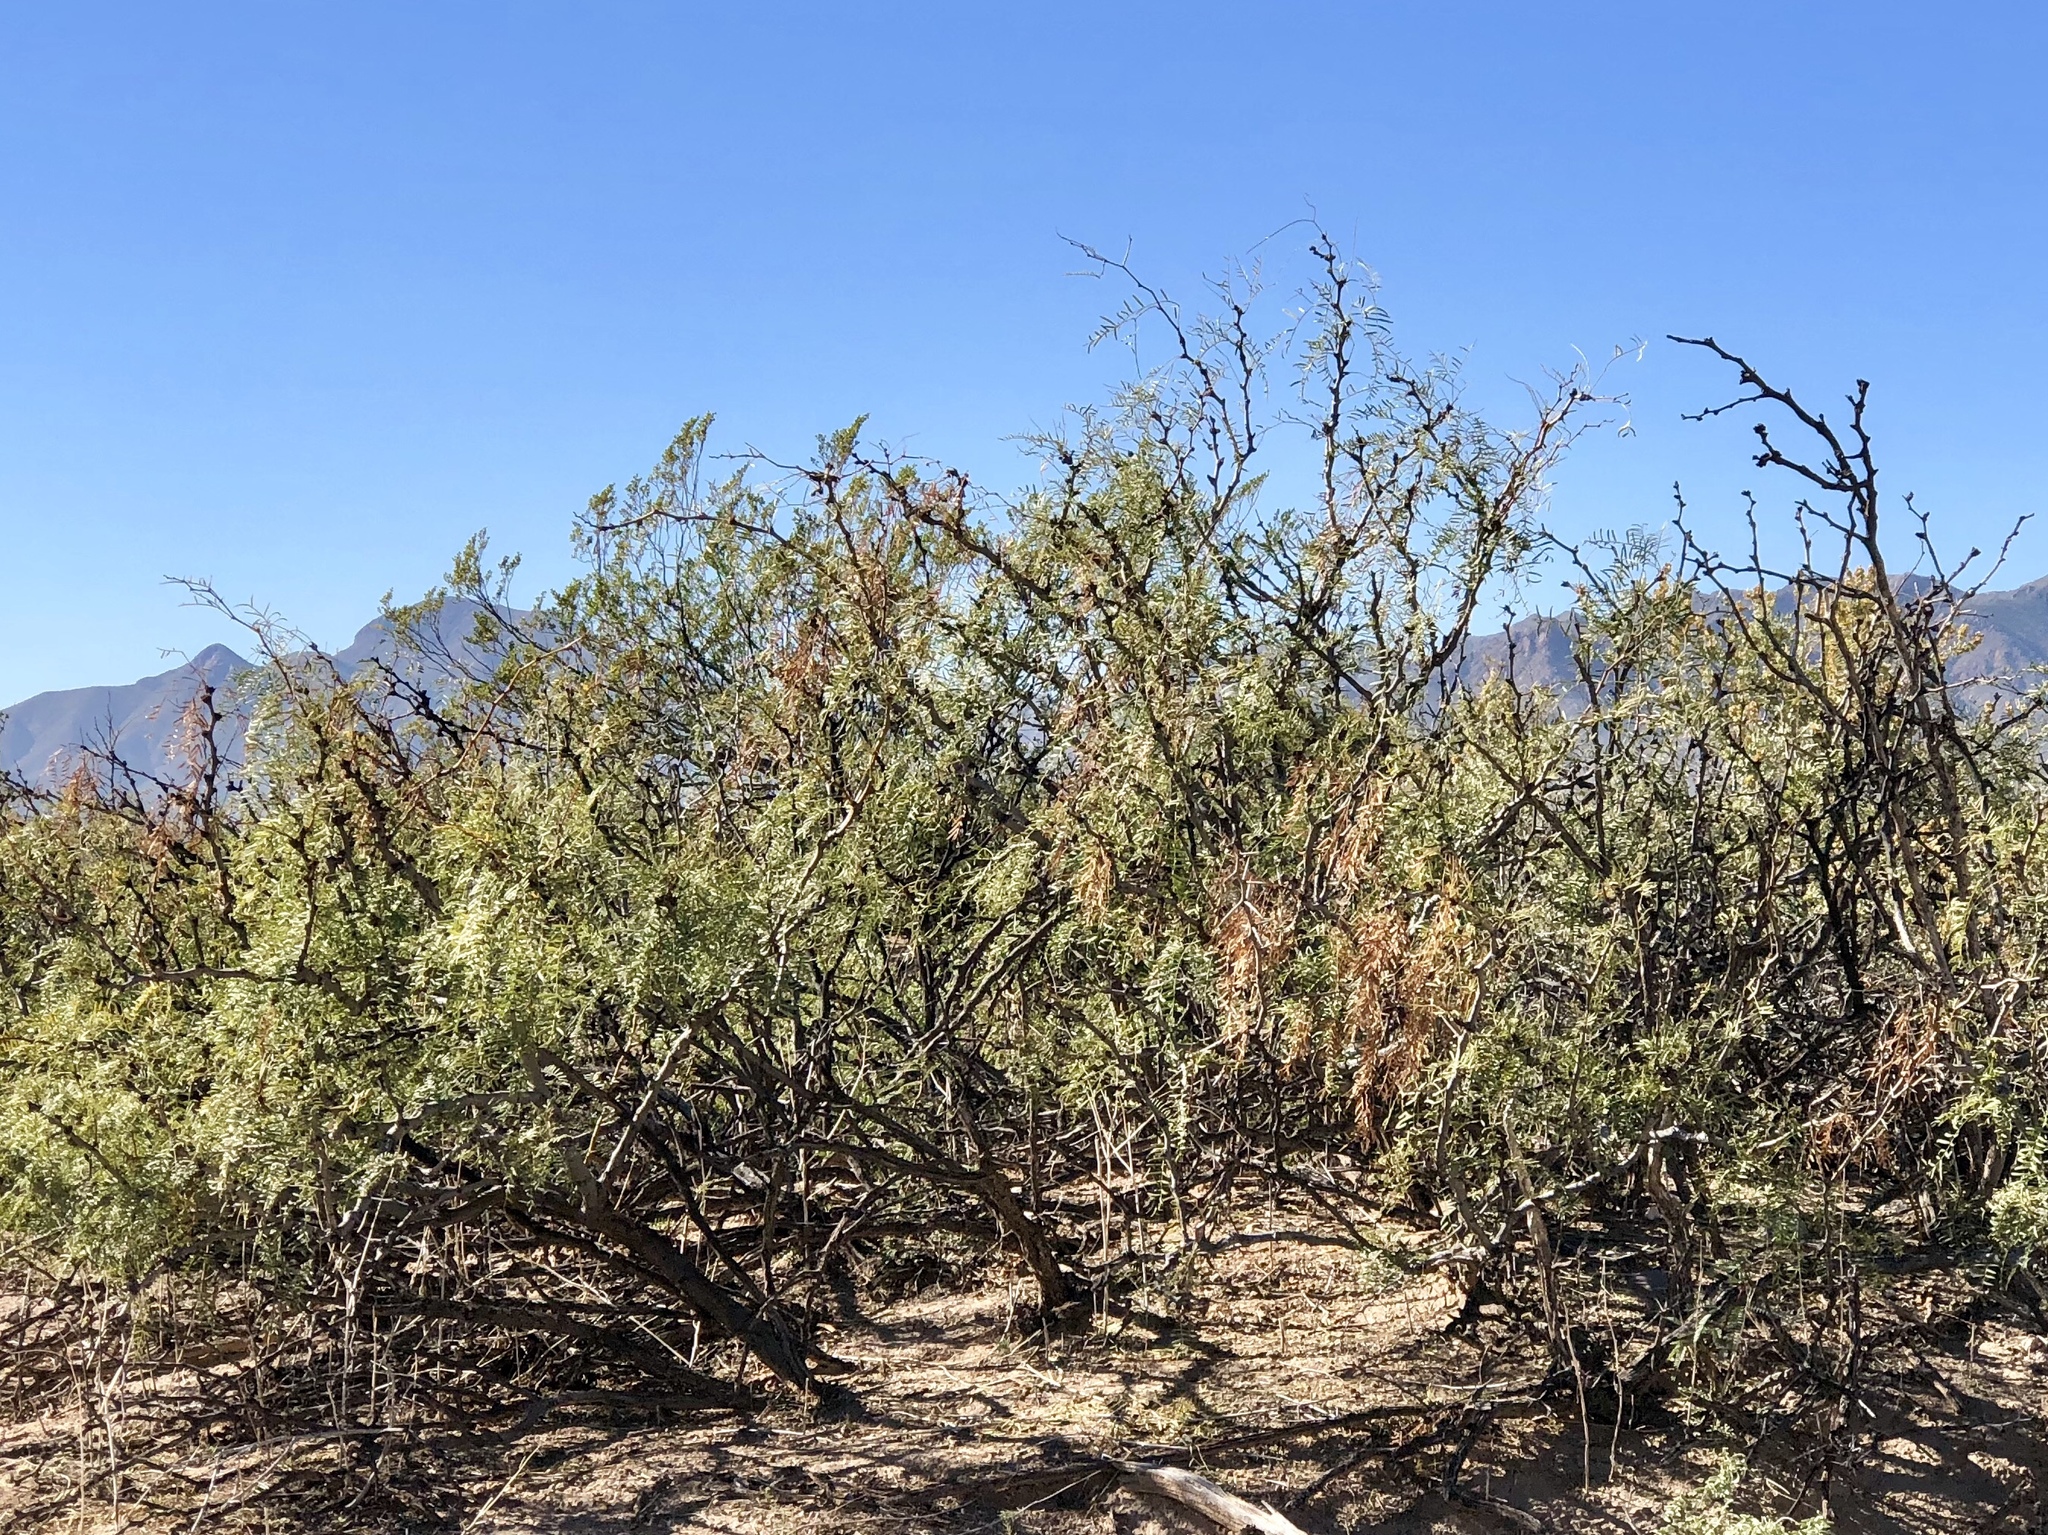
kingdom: Plantae
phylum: Tracheophyta
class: Magnoliopsida
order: Fabales
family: Fabaceae
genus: Prosopis
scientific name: Prosopis glandulosa
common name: Honey mesquite
